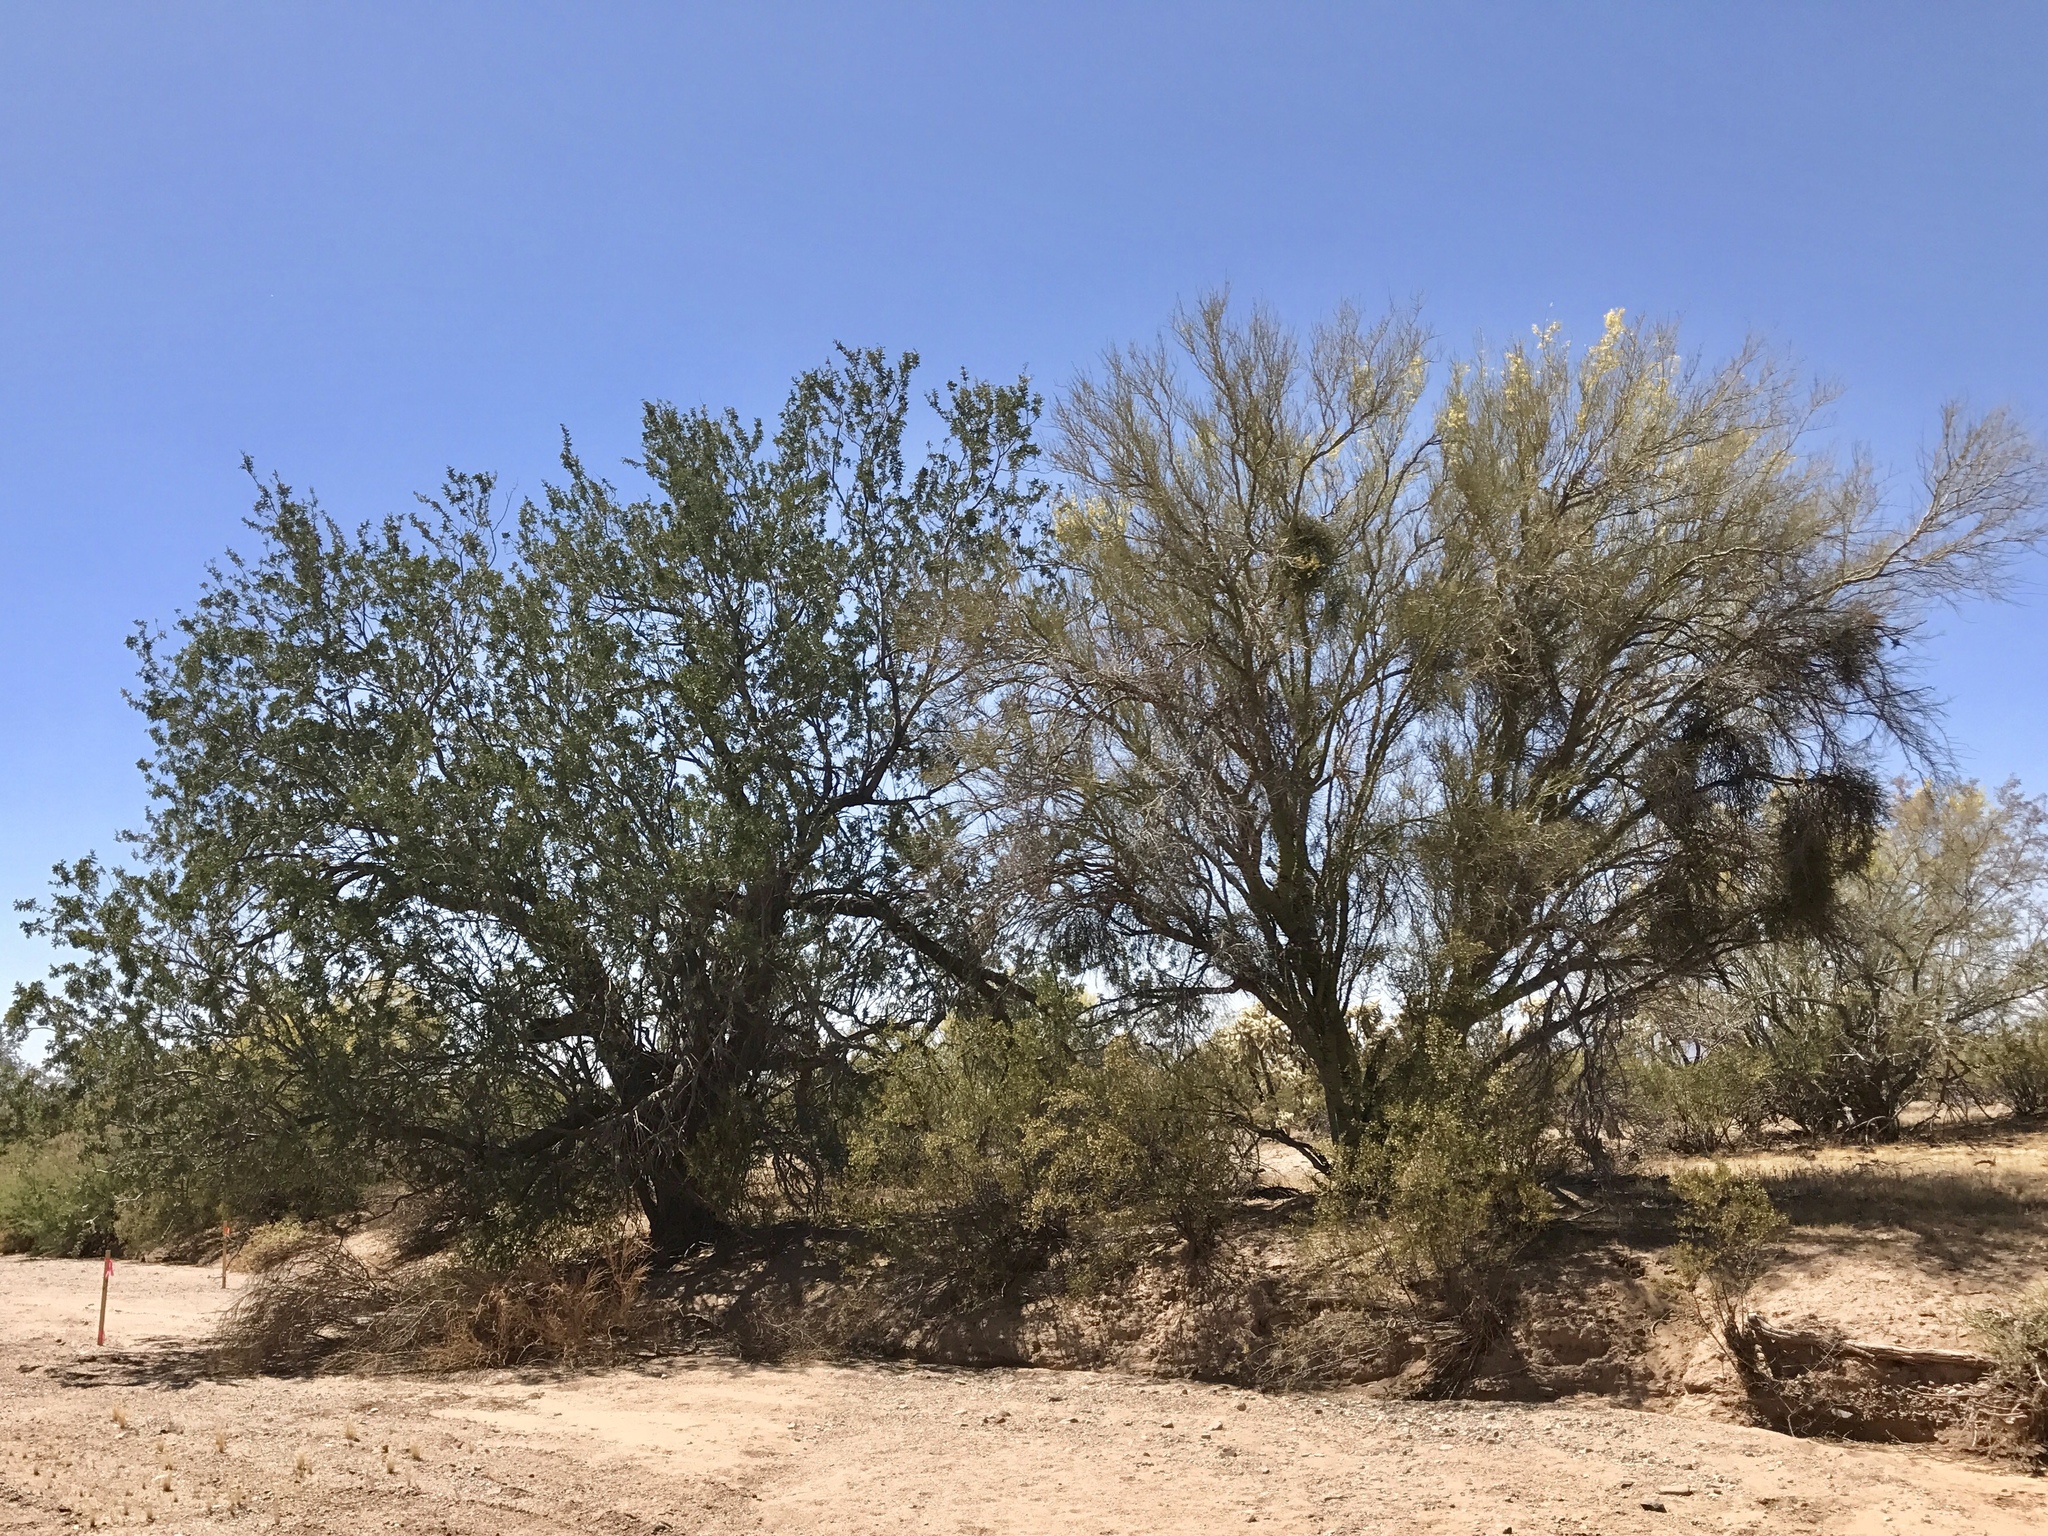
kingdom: Plantae
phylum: Tracheophyta
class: Magnoliopsida
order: Fabales
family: Fabaceae
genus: Olneya
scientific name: Olneya tesota
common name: Desert ironwood
